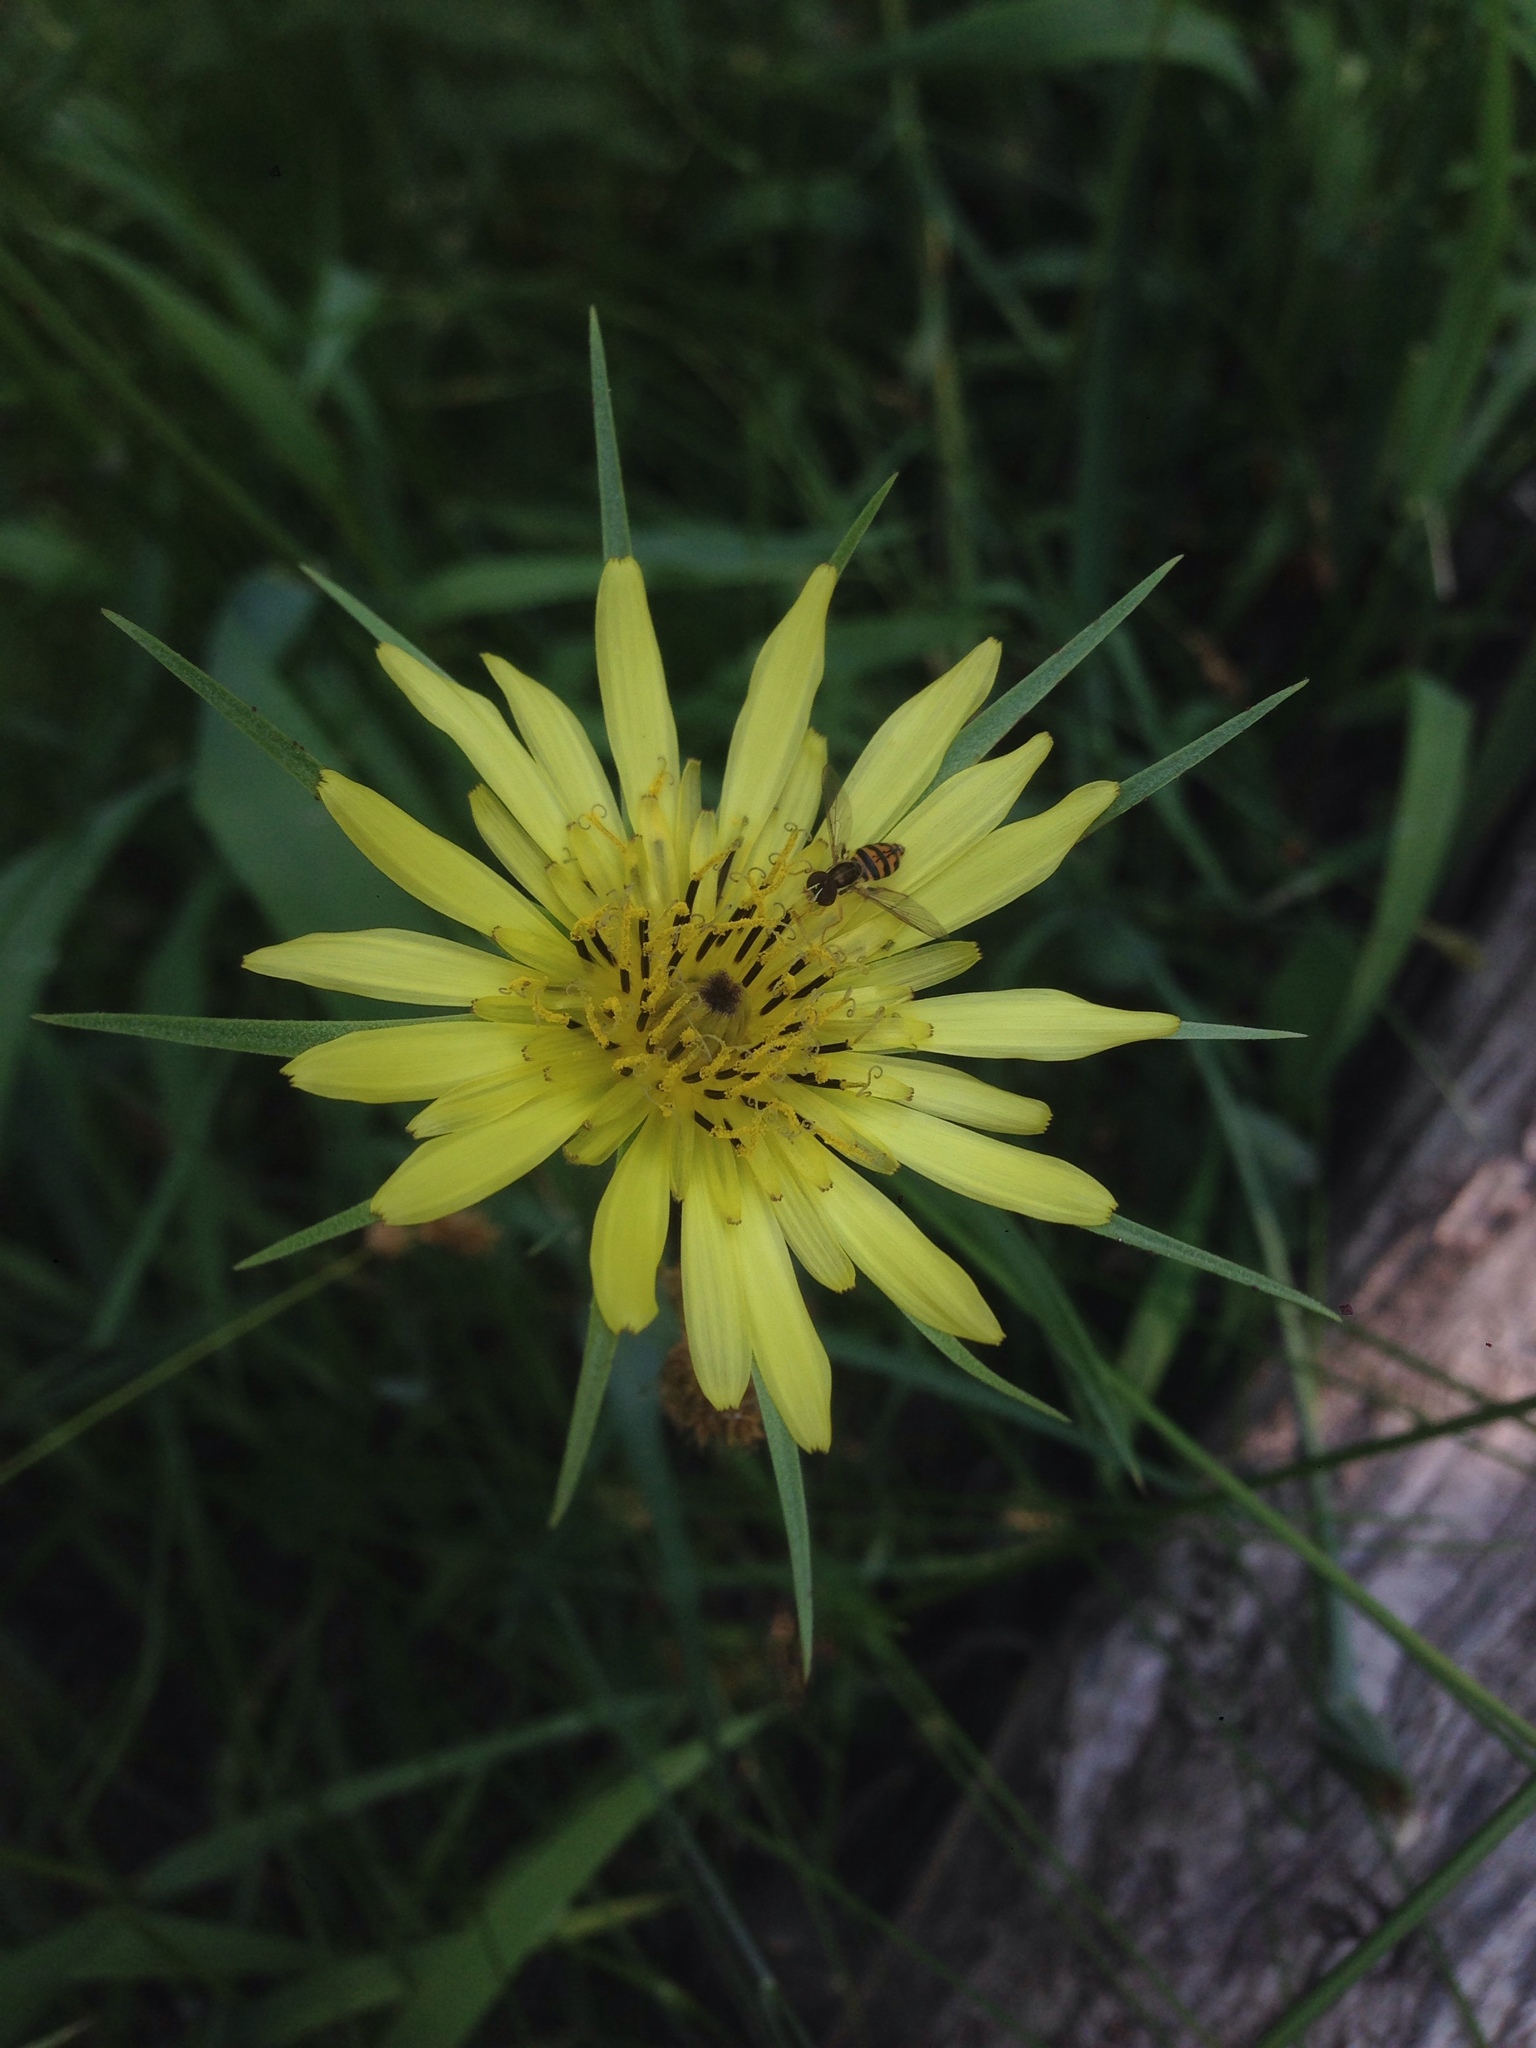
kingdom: Plantae
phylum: Tracheophyta
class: Magnoliopsida
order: Asterales
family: Asteraceae
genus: Tragopogon
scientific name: Tragopogon dubius
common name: Yellow salsify
